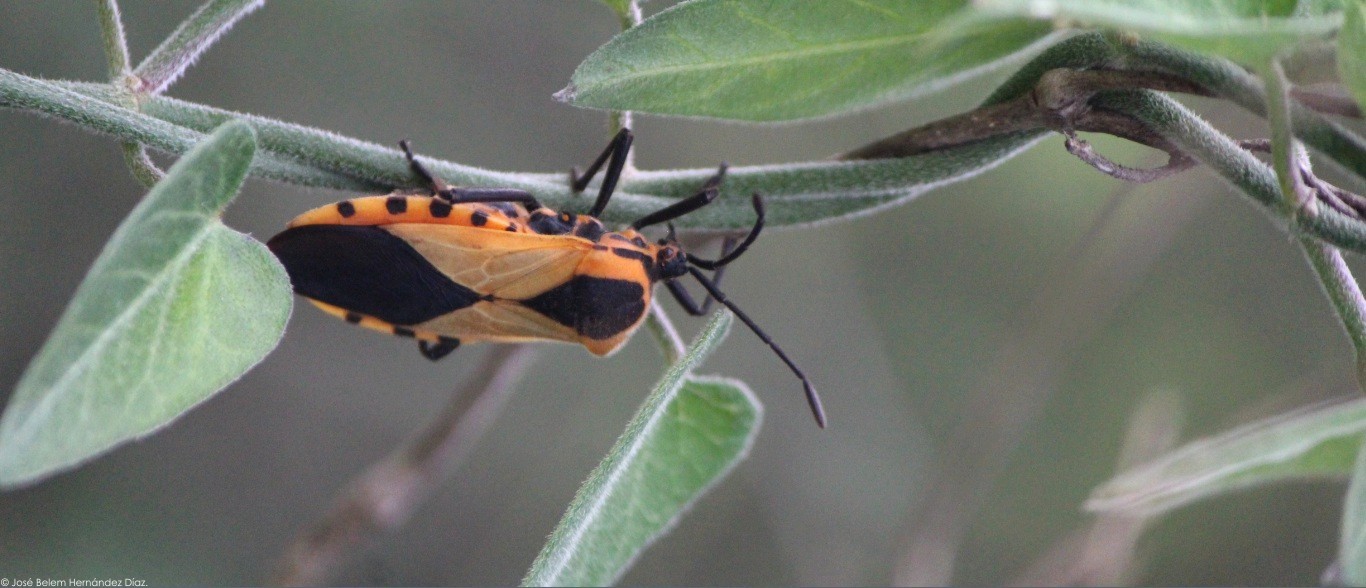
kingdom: Animalia
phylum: Arthropoda
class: Insecta
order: Hemiptera
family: Coreidae
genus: Sephina
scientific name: Sephina dorsalis
